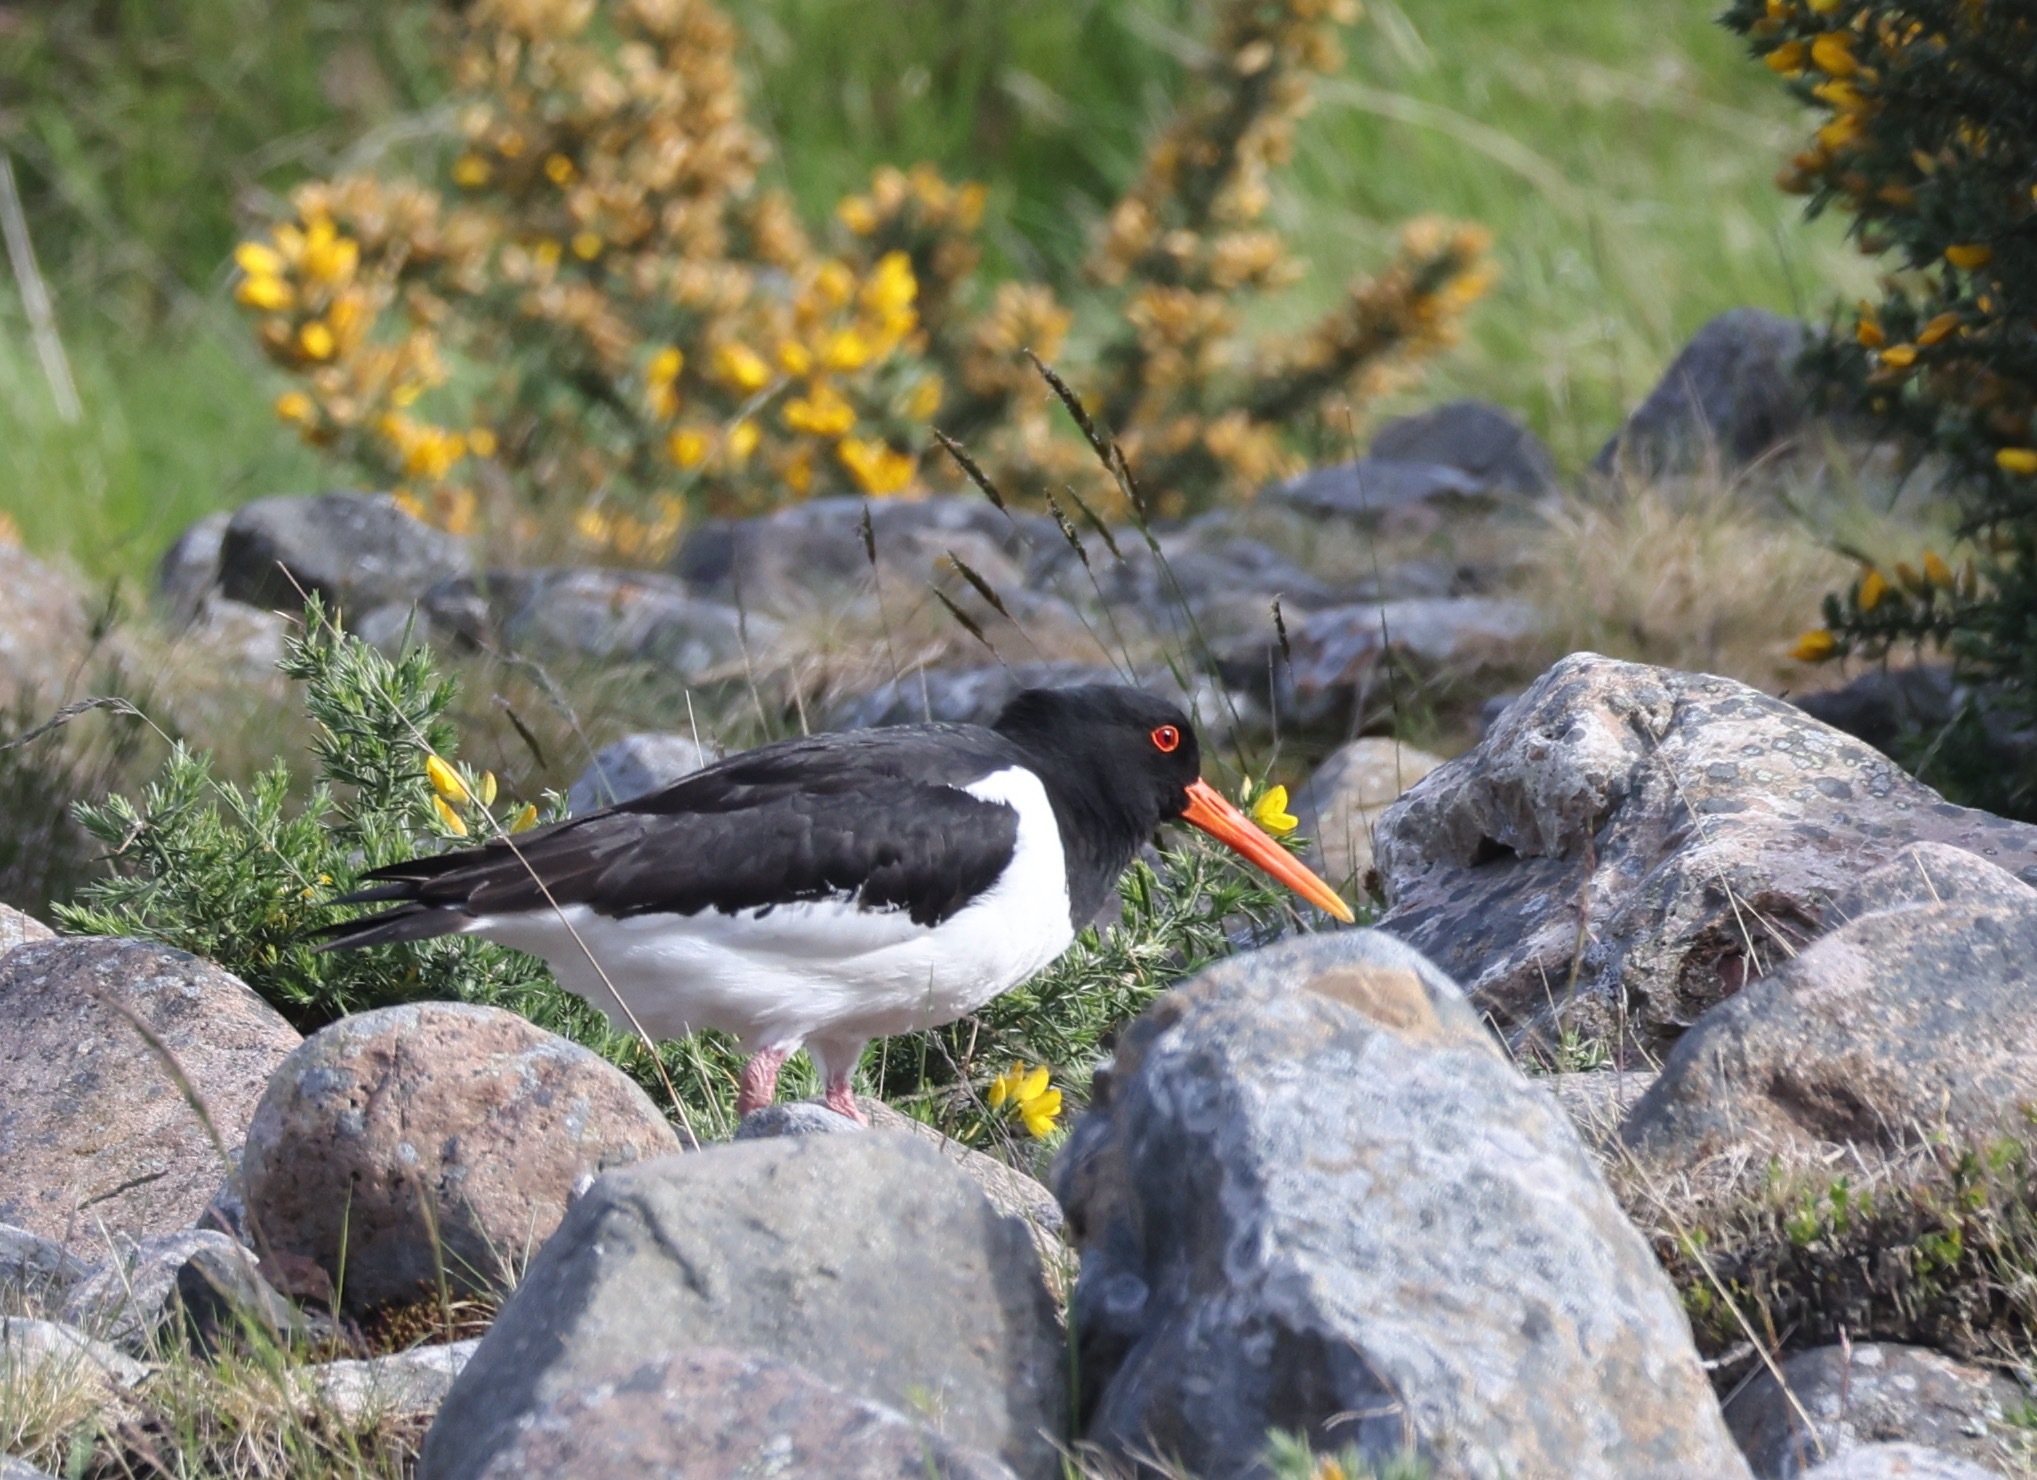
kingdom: Animalia
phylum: Chordata
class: Aves
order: Charadriiformes
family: Haematopodidae
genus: Haematopus
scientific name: Haematopus ostralegus
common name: Eurasian oystercatcher
